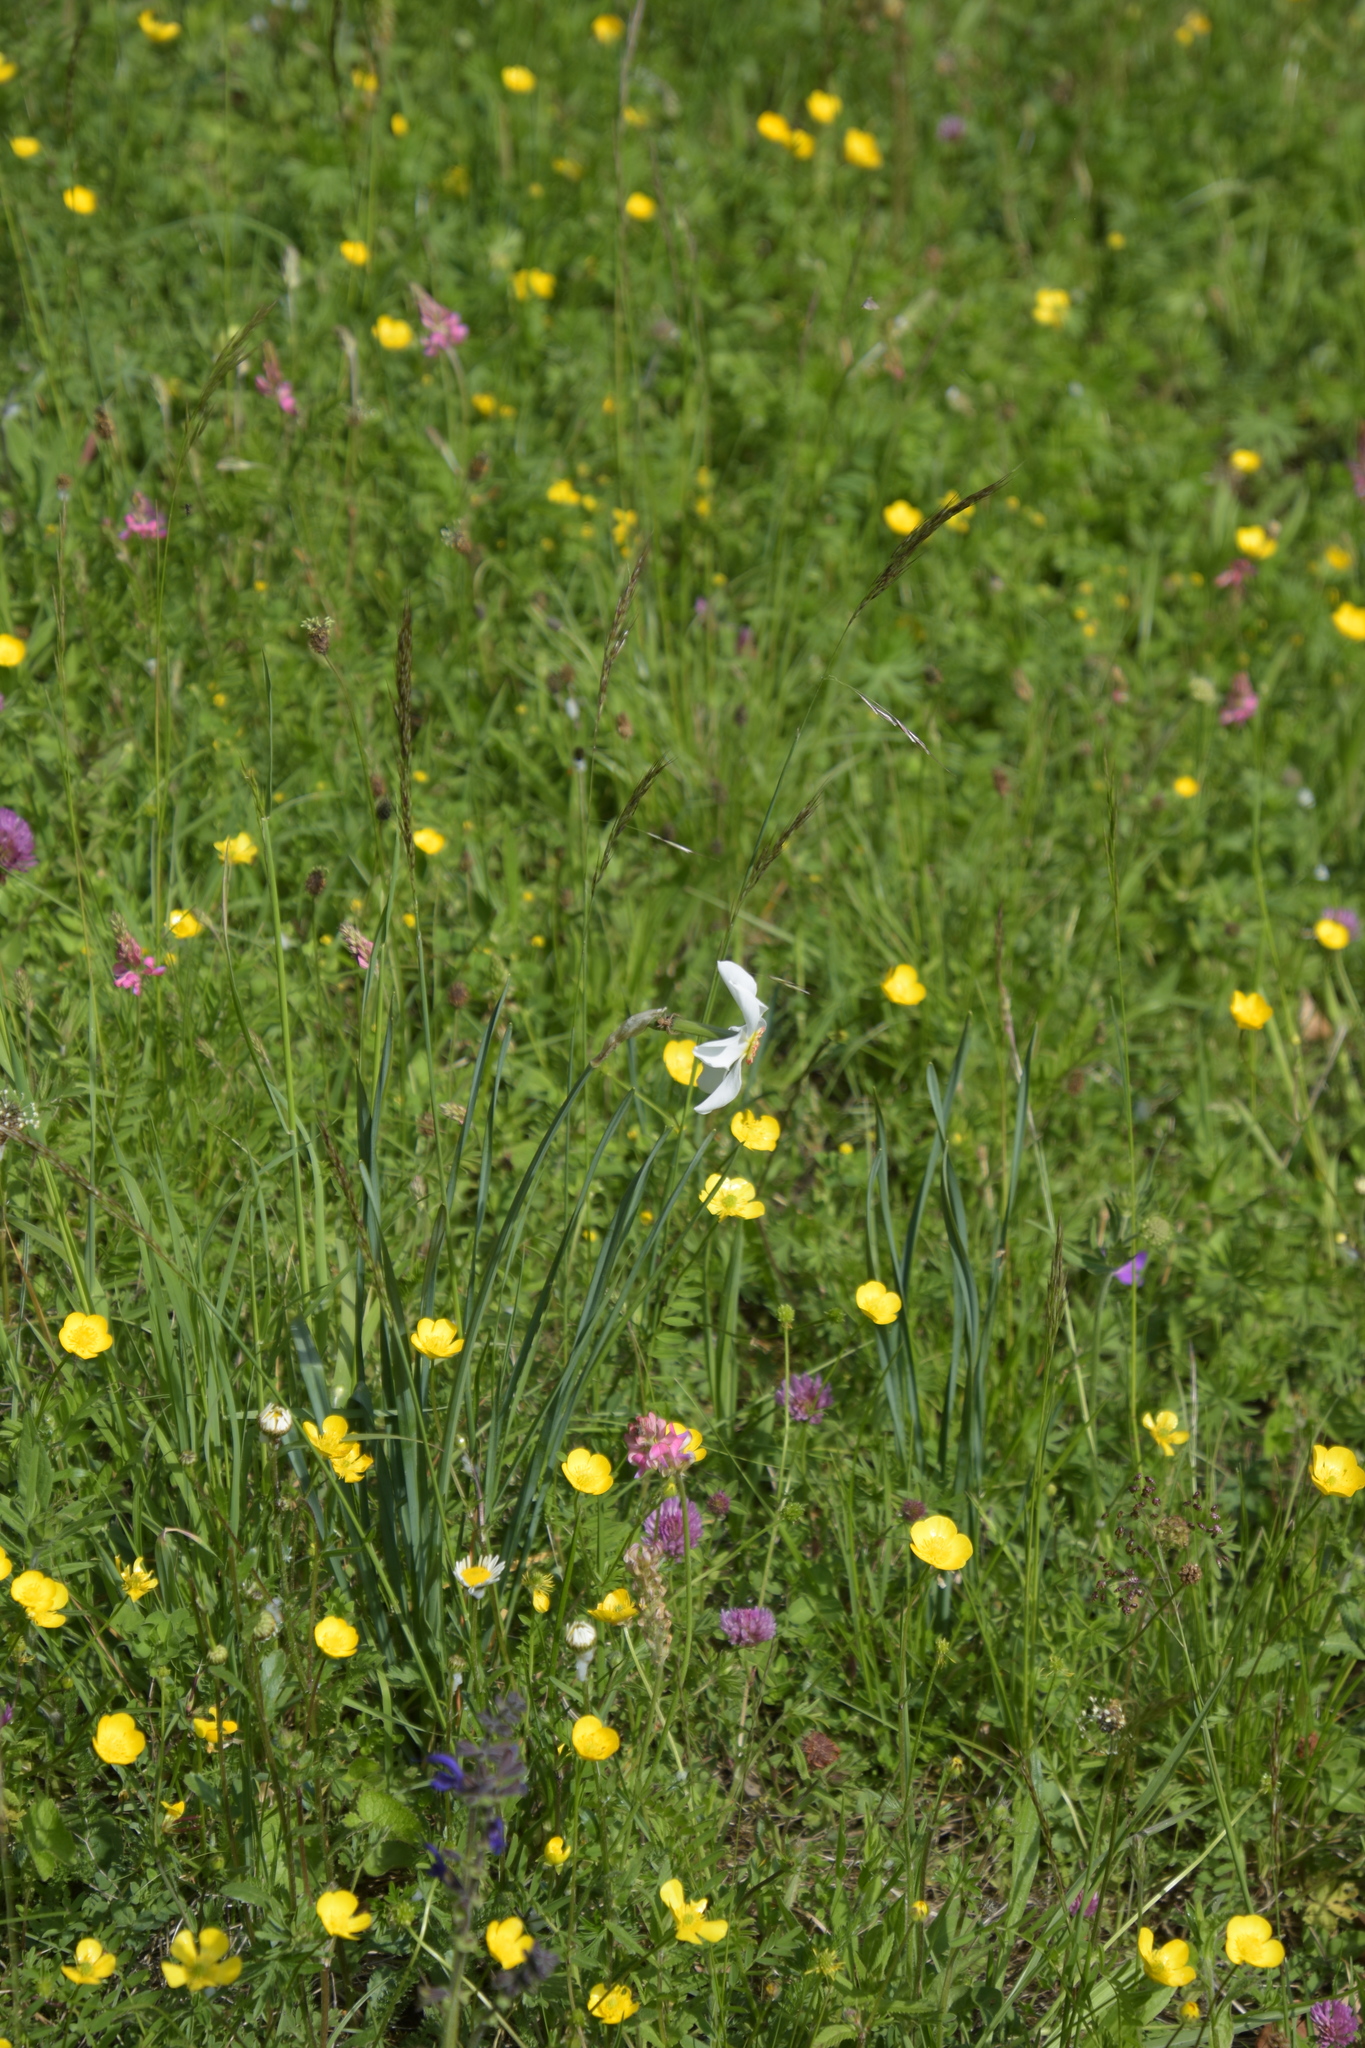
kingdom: Plantae
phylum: Tracheophyta
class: Liliopsida
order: Asparagales
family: Amaryllidaceae
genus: Narcissus
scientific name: Narcissus poeticus
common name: Pheasant's-eye daffodil
